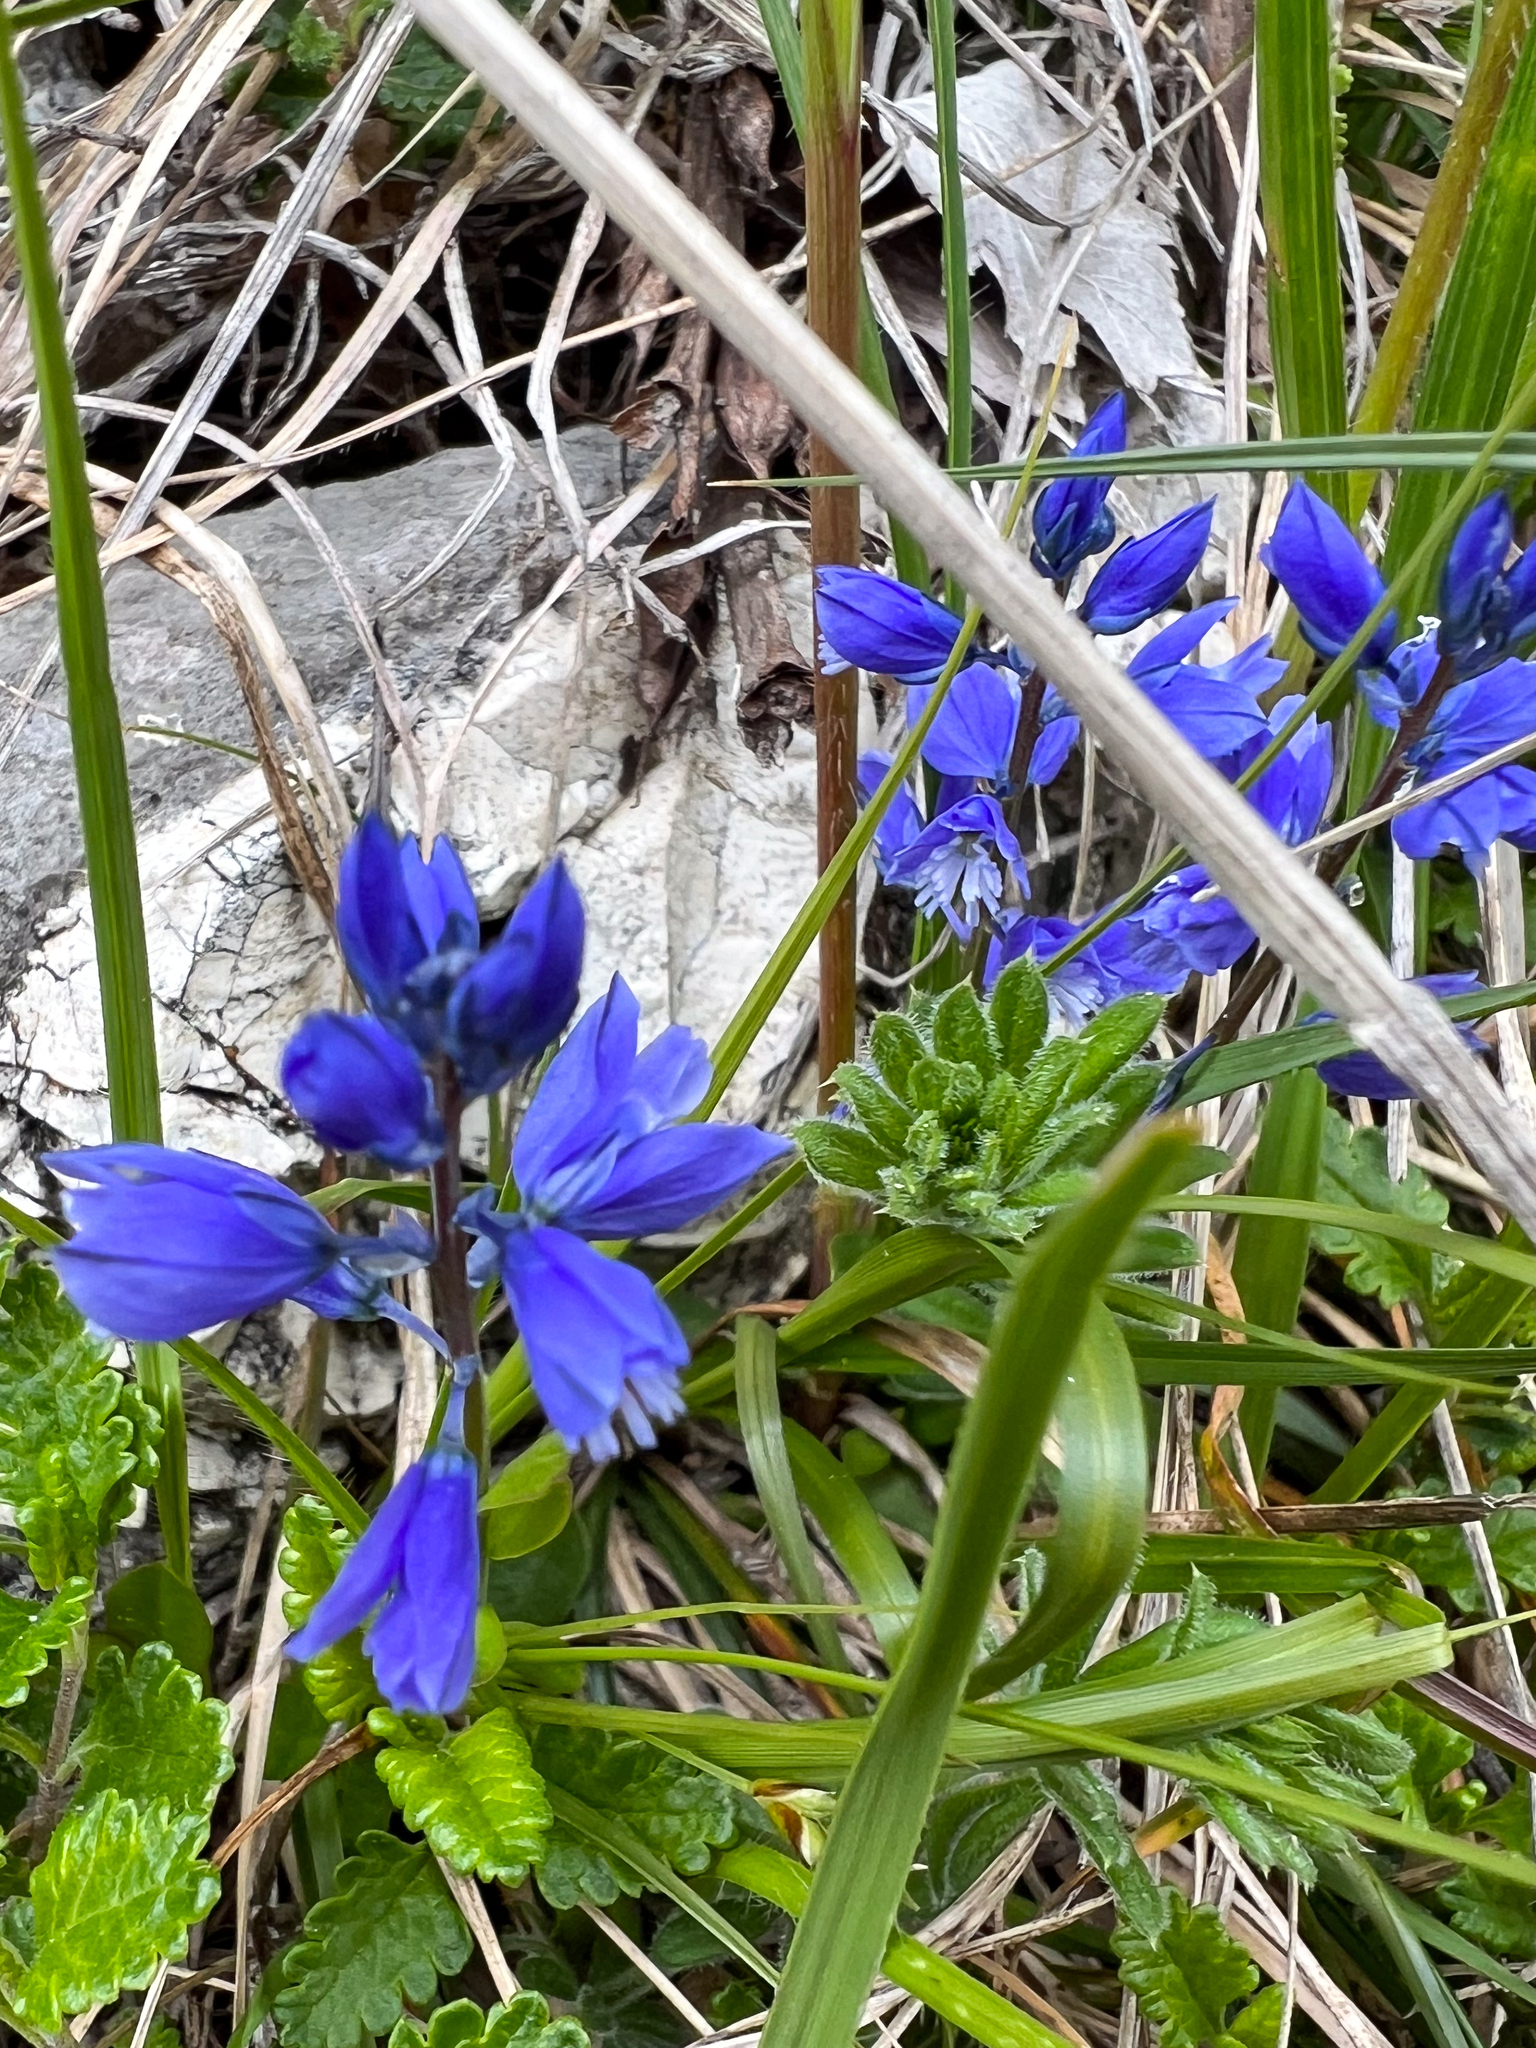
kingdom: Plantae
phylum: Tracheophyta
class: Magnoliopsida
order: Fabales
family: Polygalaceae
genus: Polygala
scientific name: Polygala vulgaris
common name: Common milkwort
